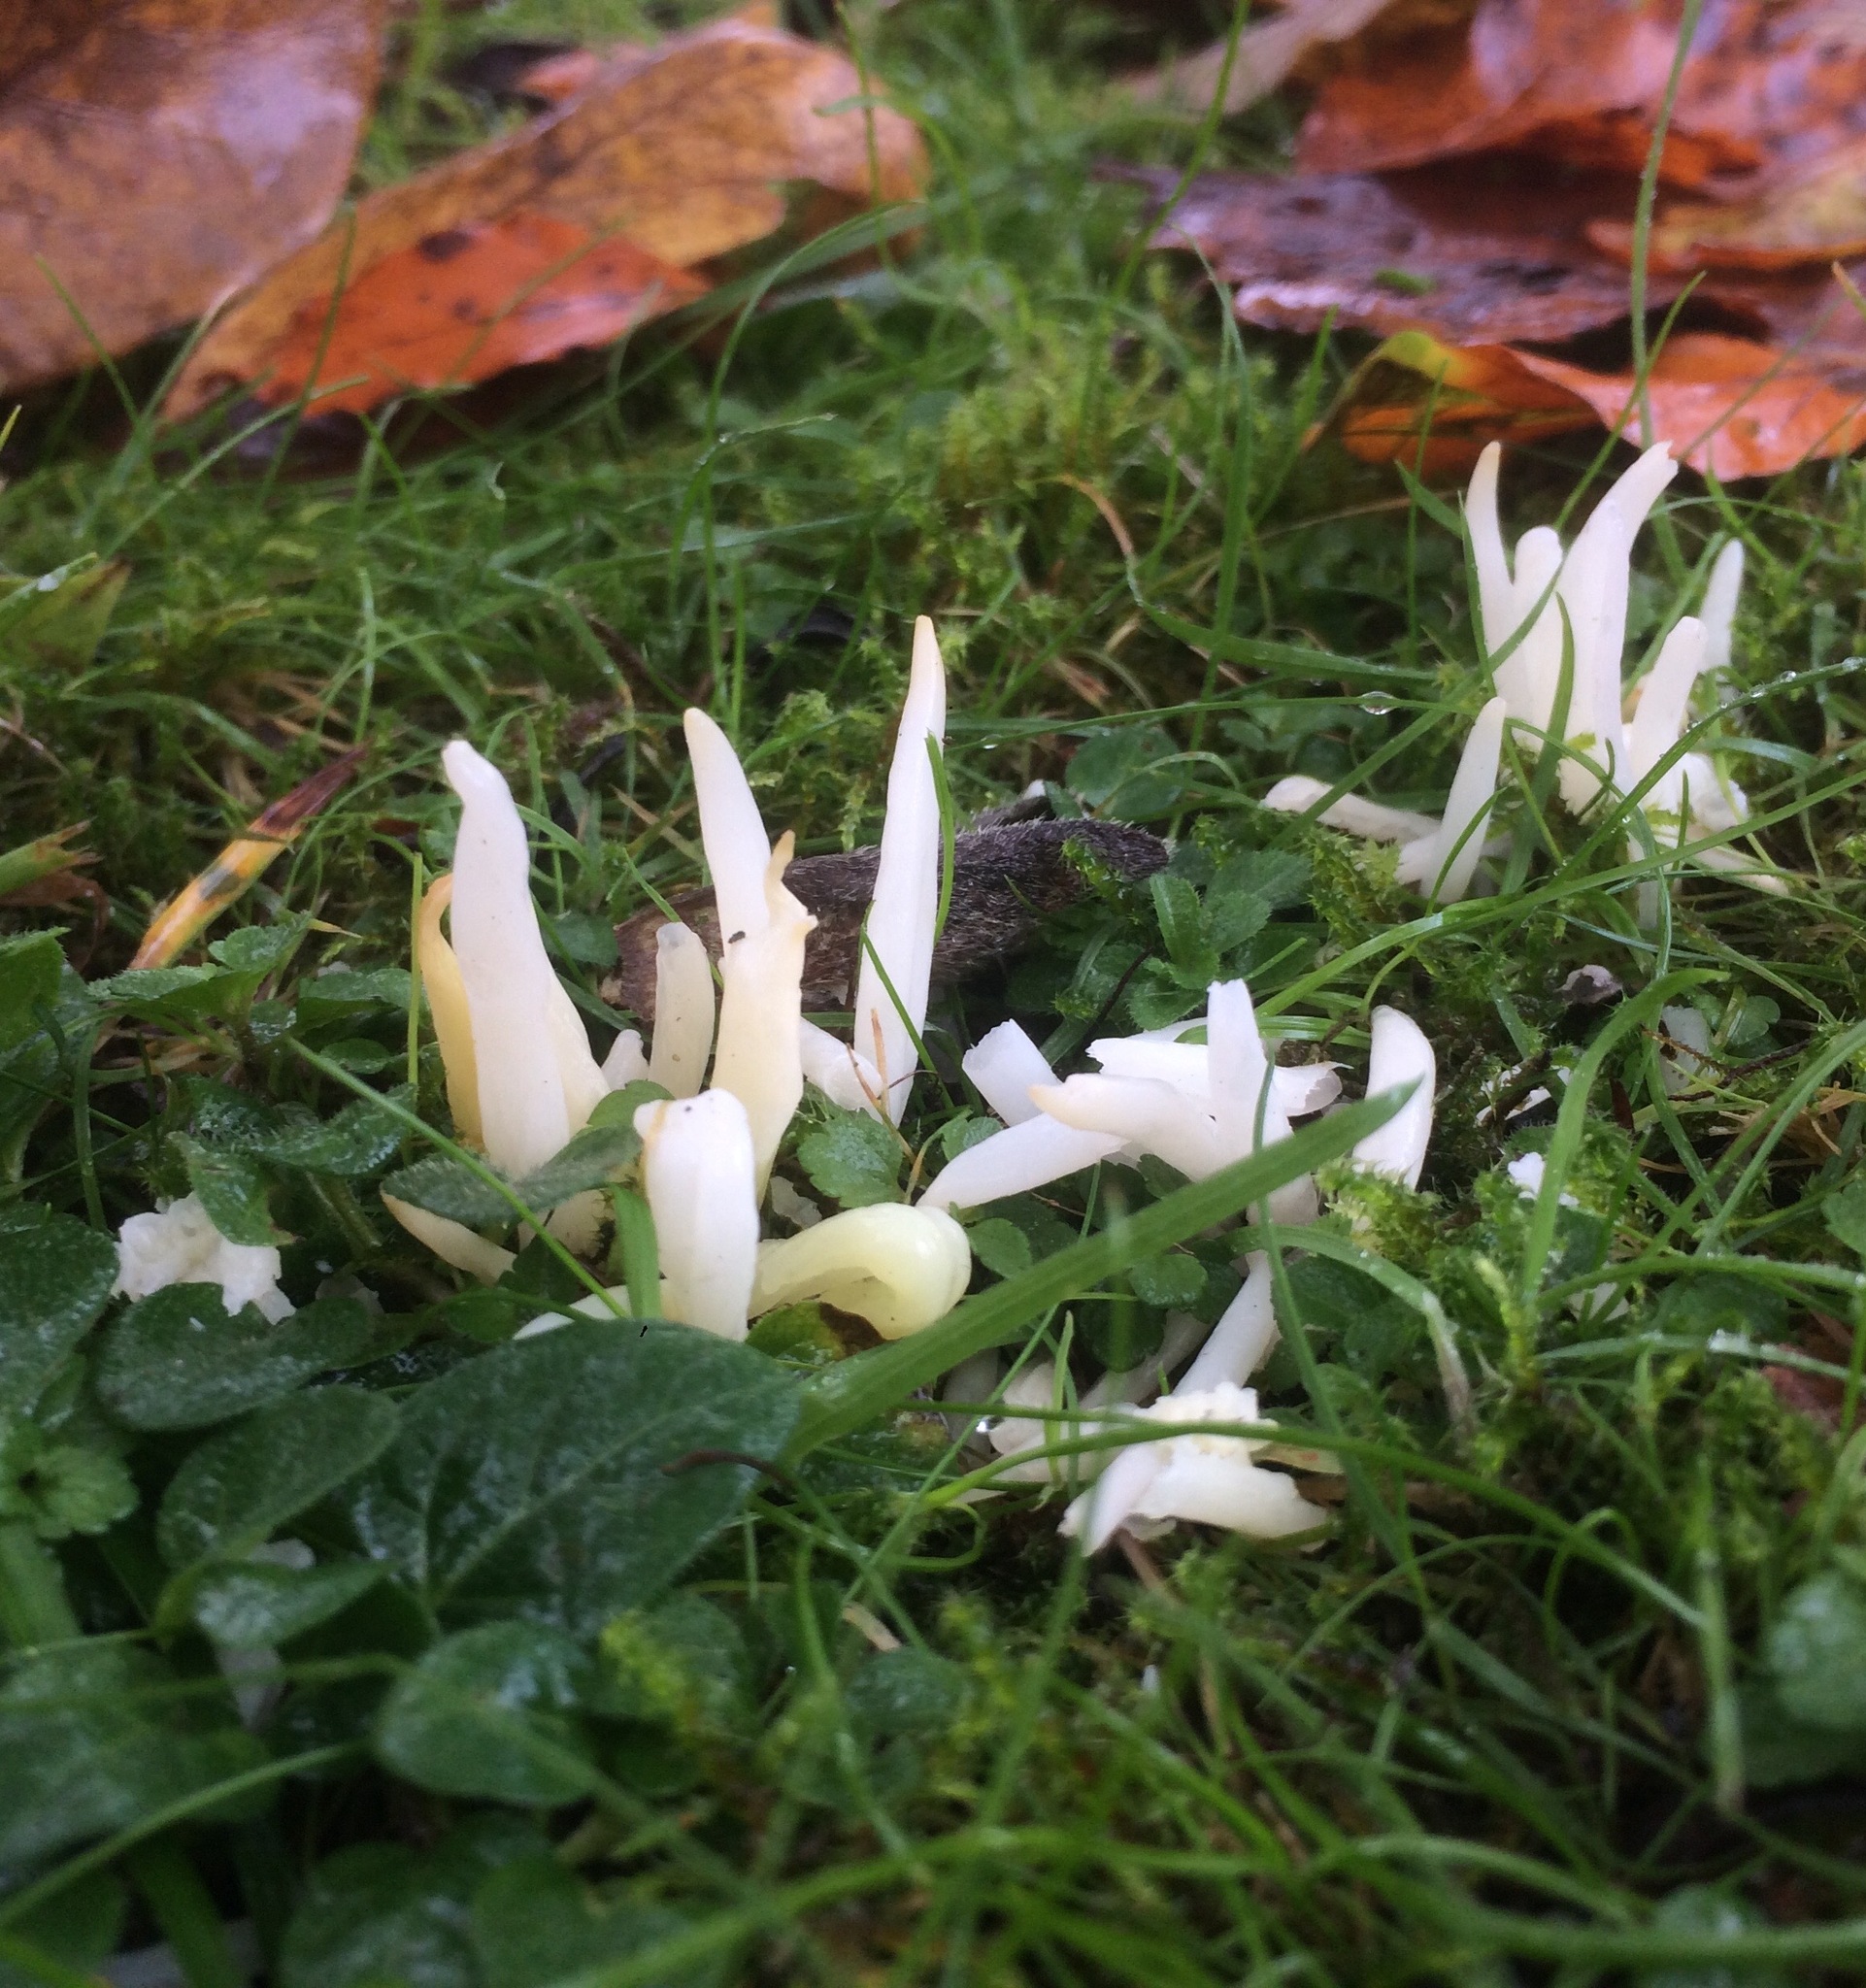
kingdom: Fungi
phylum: Basidiomycota
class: Agaricomycetes
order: Agaricales
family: Clavariaceae
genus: Clavaria
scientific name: Clavaria fragilis
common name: White spindles
